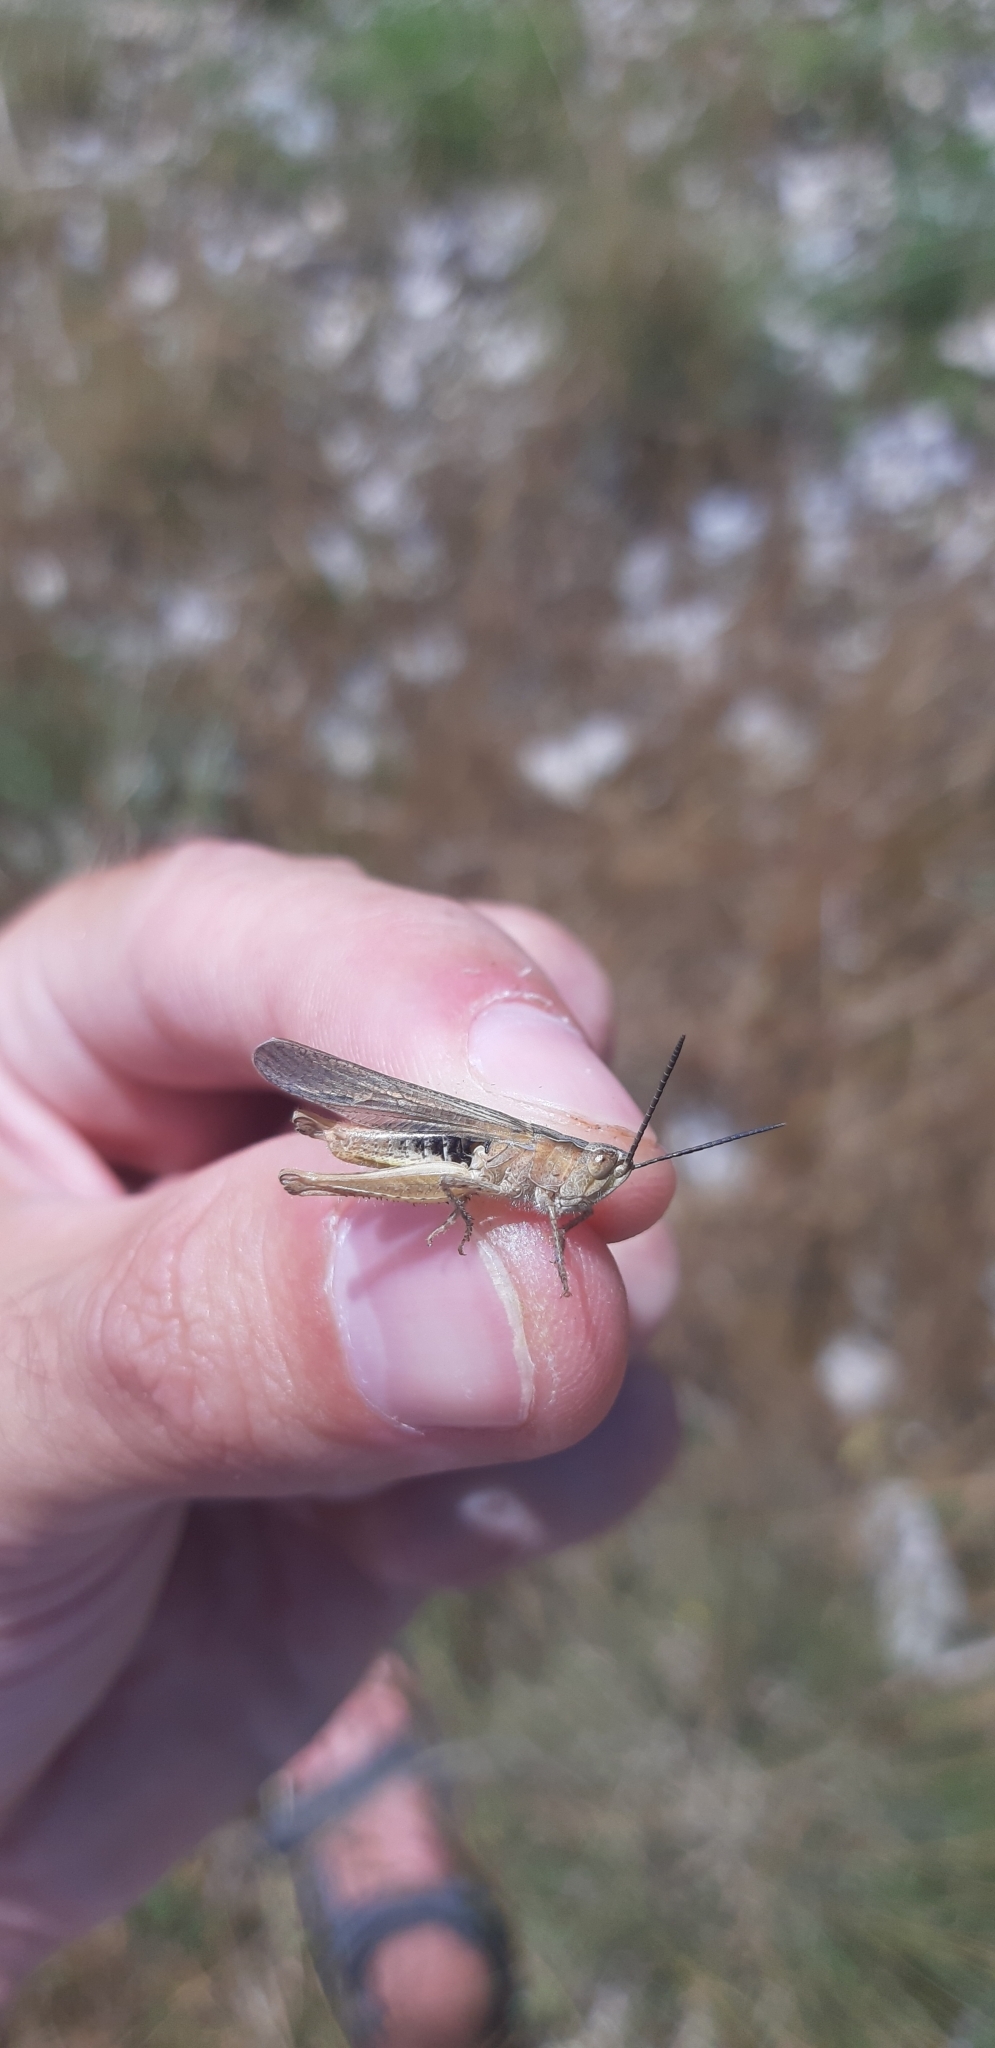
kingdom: Animalia
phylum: Arthropoda
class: Insecta
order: Orthoptera
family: Acrididae
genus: Chorthippus
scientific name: Chorthippus brunneus
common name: Field grasshopper
